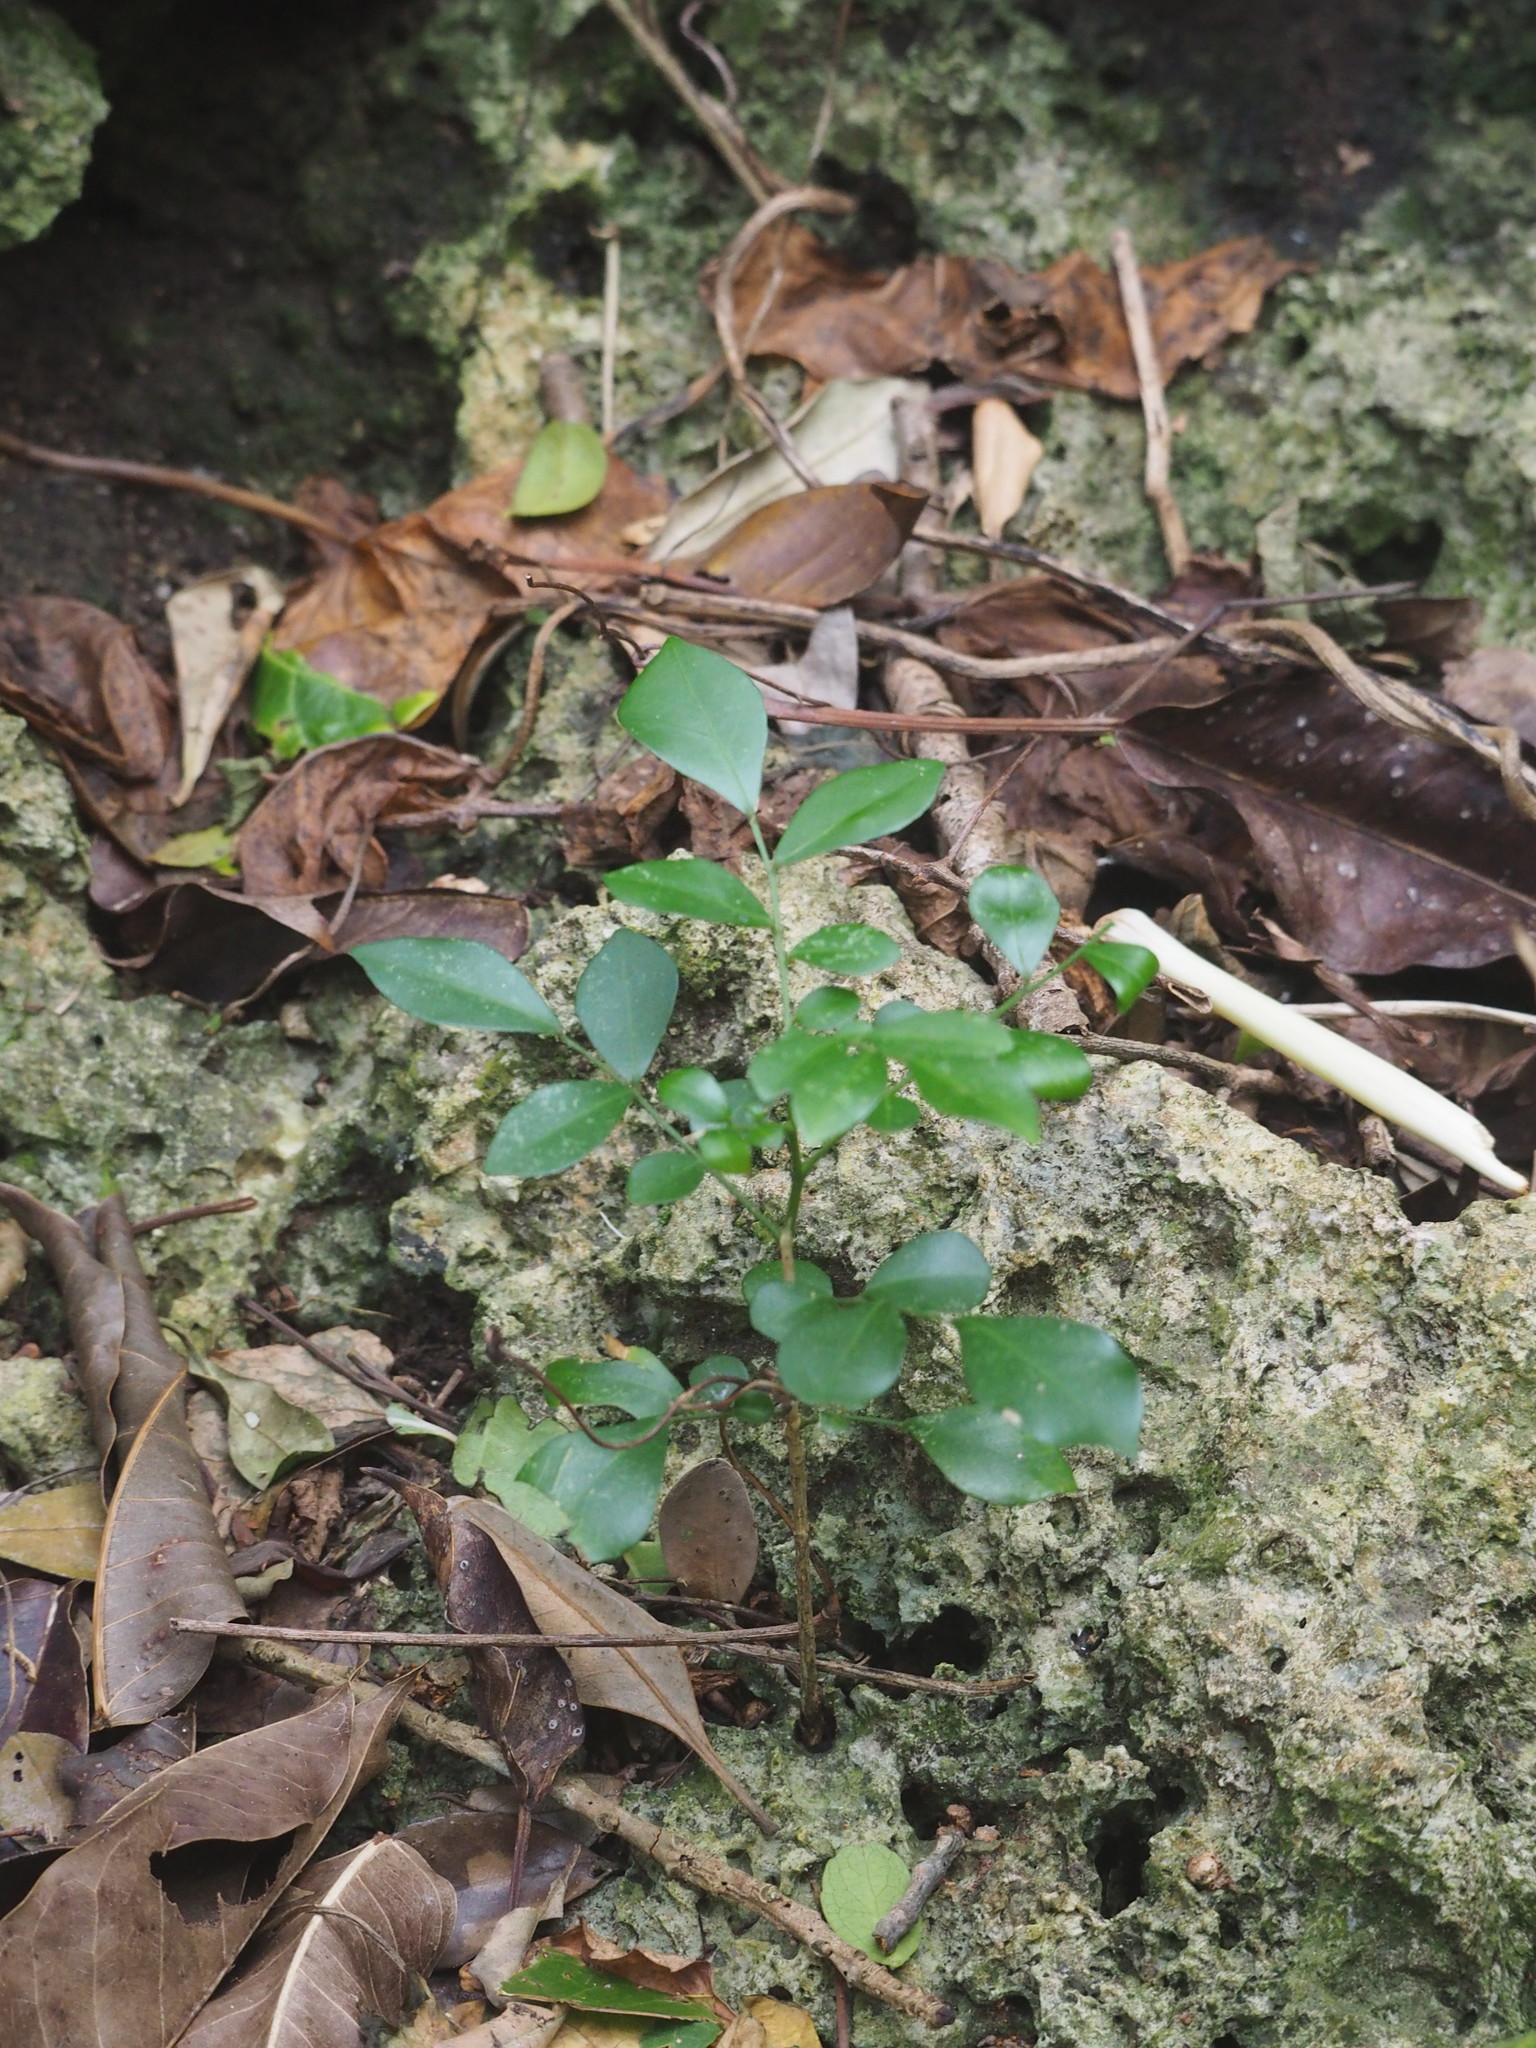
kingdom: Plantae
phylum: Tracheophyta
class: Magnoliopsida
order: Sapindales
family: Rutaceae
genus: Murraya
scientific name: Murraya paniculata
